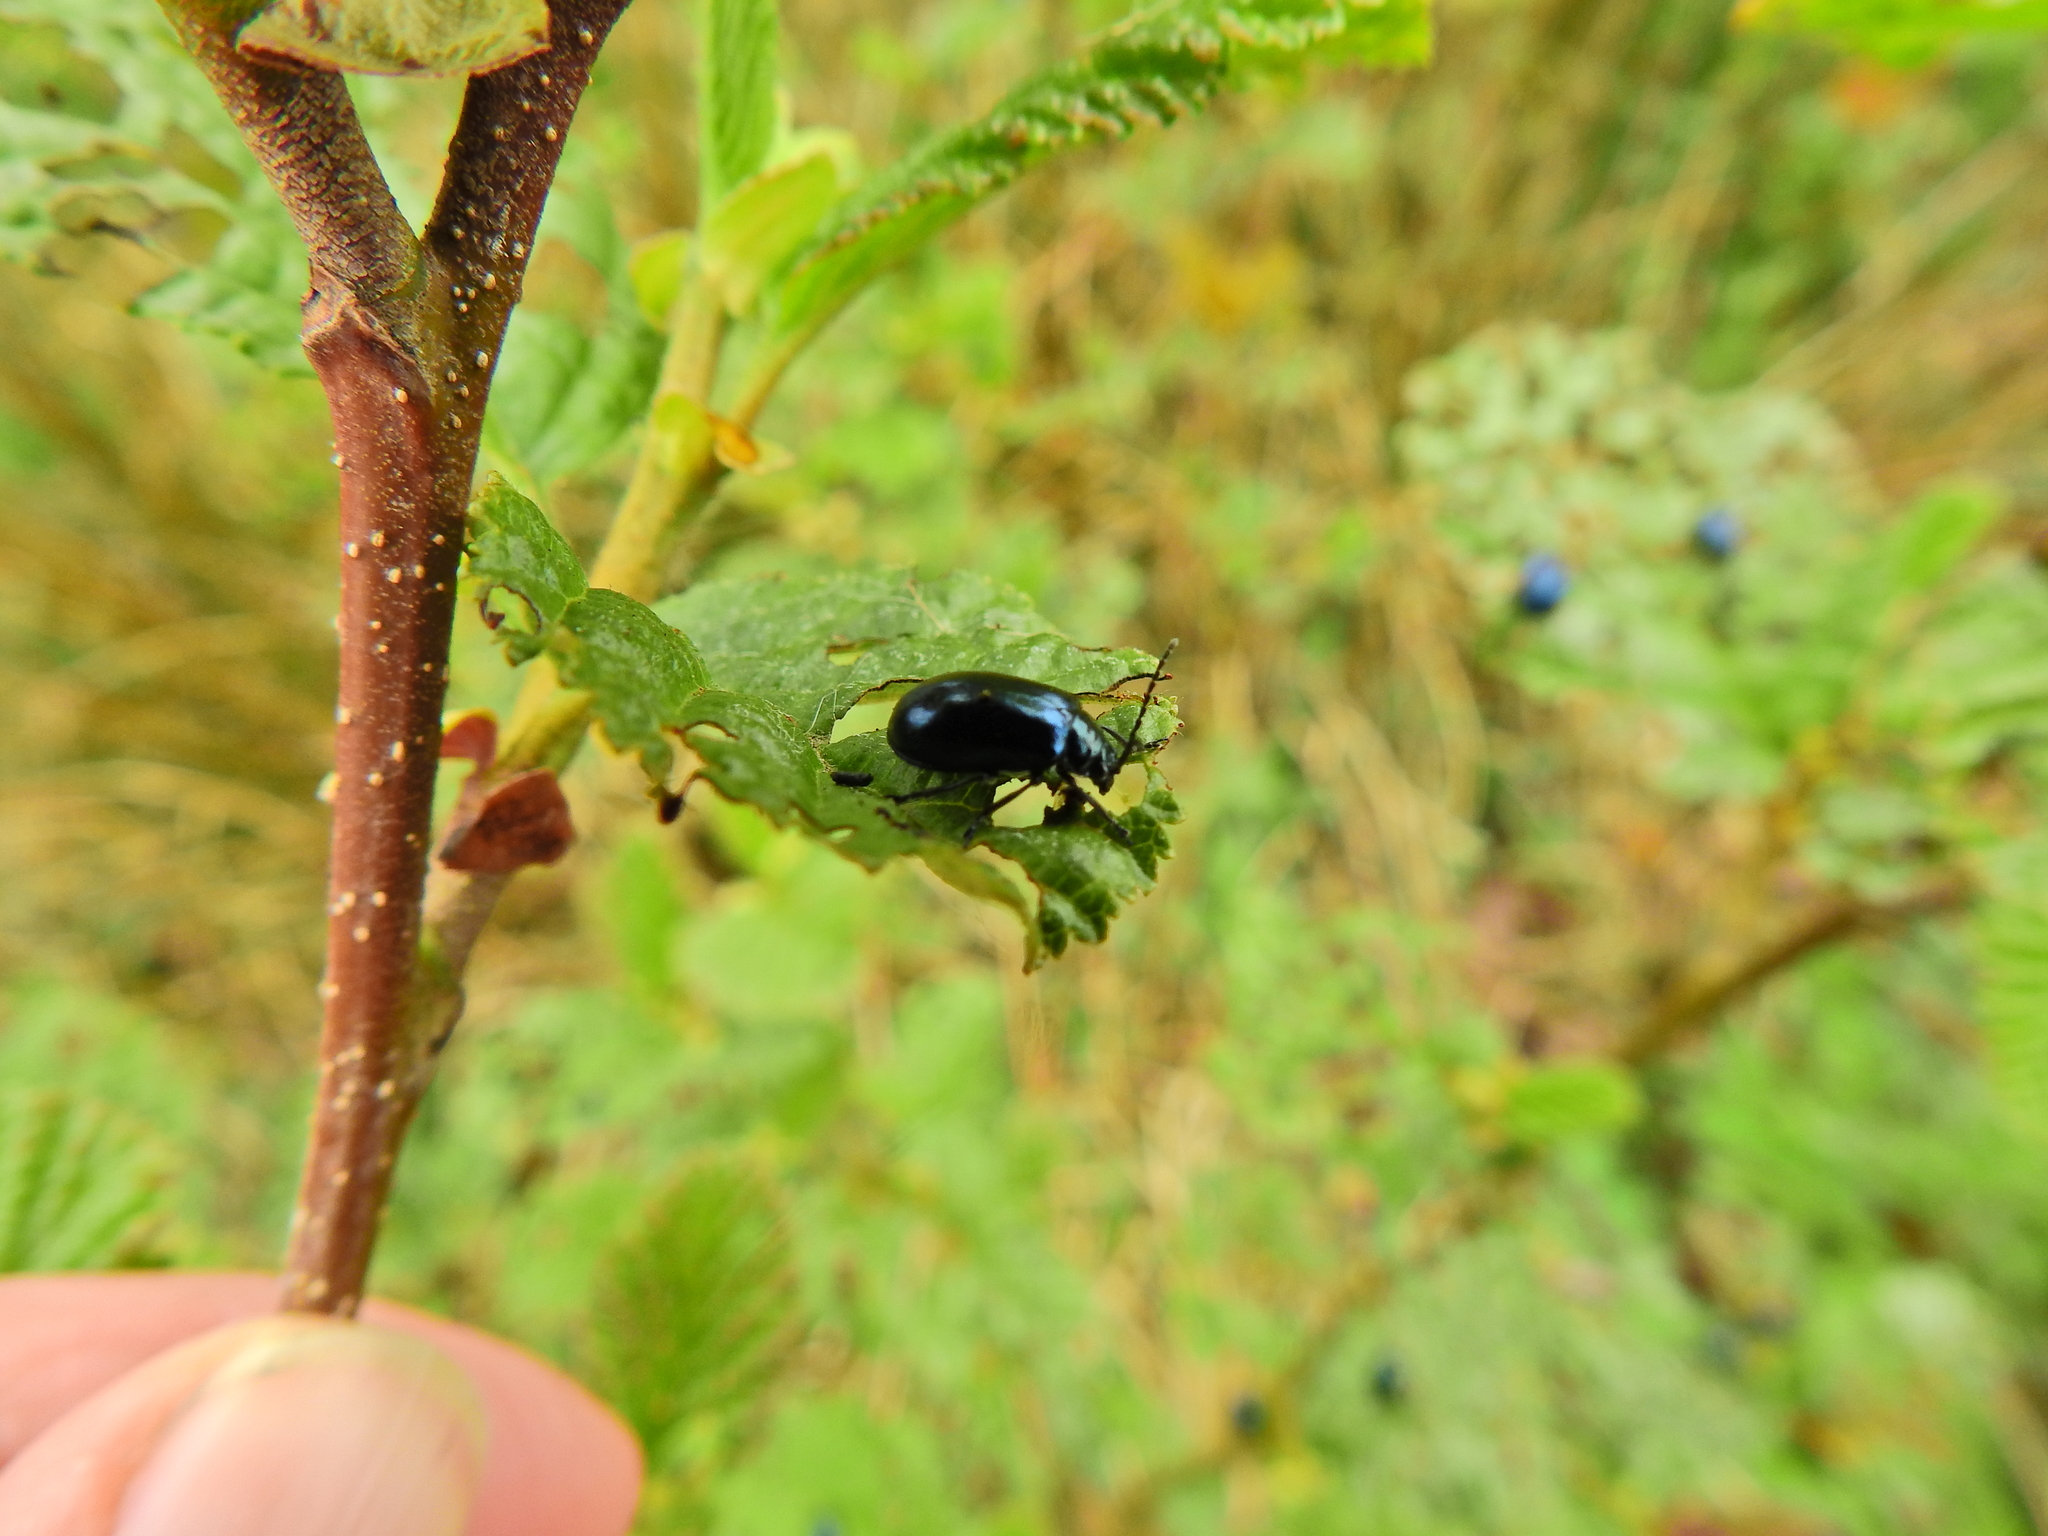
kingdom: Animalia
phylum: Arthropoda
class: Insecta
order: Coleoptera
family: Chrysomelidae
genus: Agelastica
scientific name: Agelastica alni
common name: Alder leaf beetle
